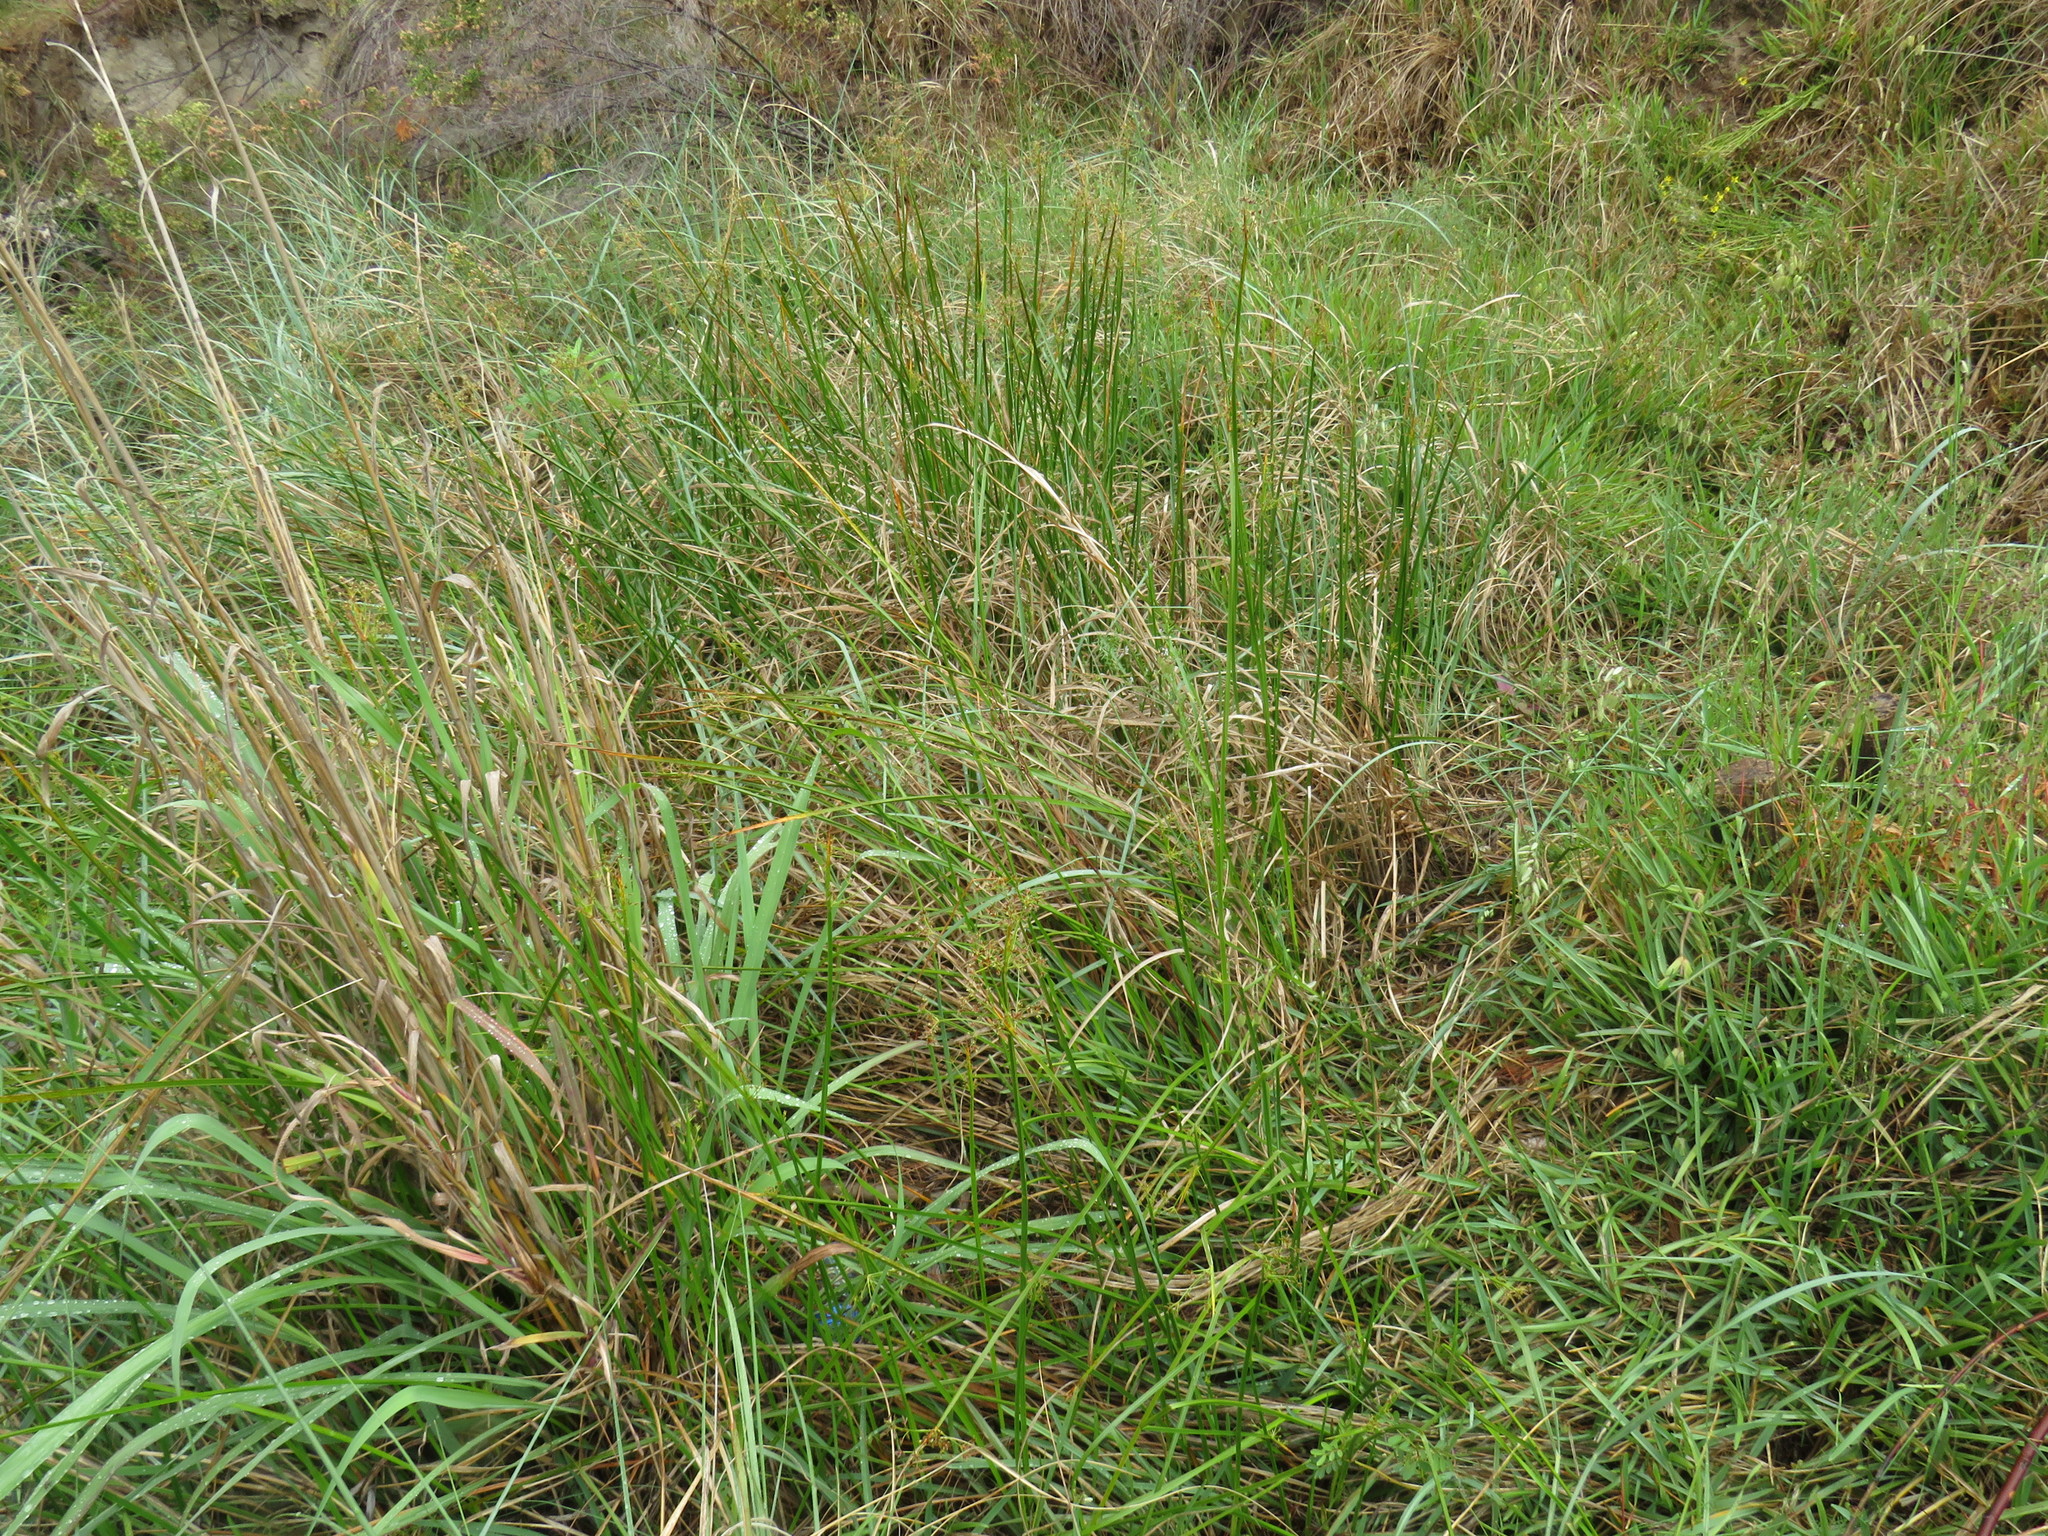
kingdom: Plantae
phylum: Tracheophyta
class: Liliopsida
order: Poales
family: Cyperaceae
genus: Cyperus
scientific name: Cyperus denudatus
